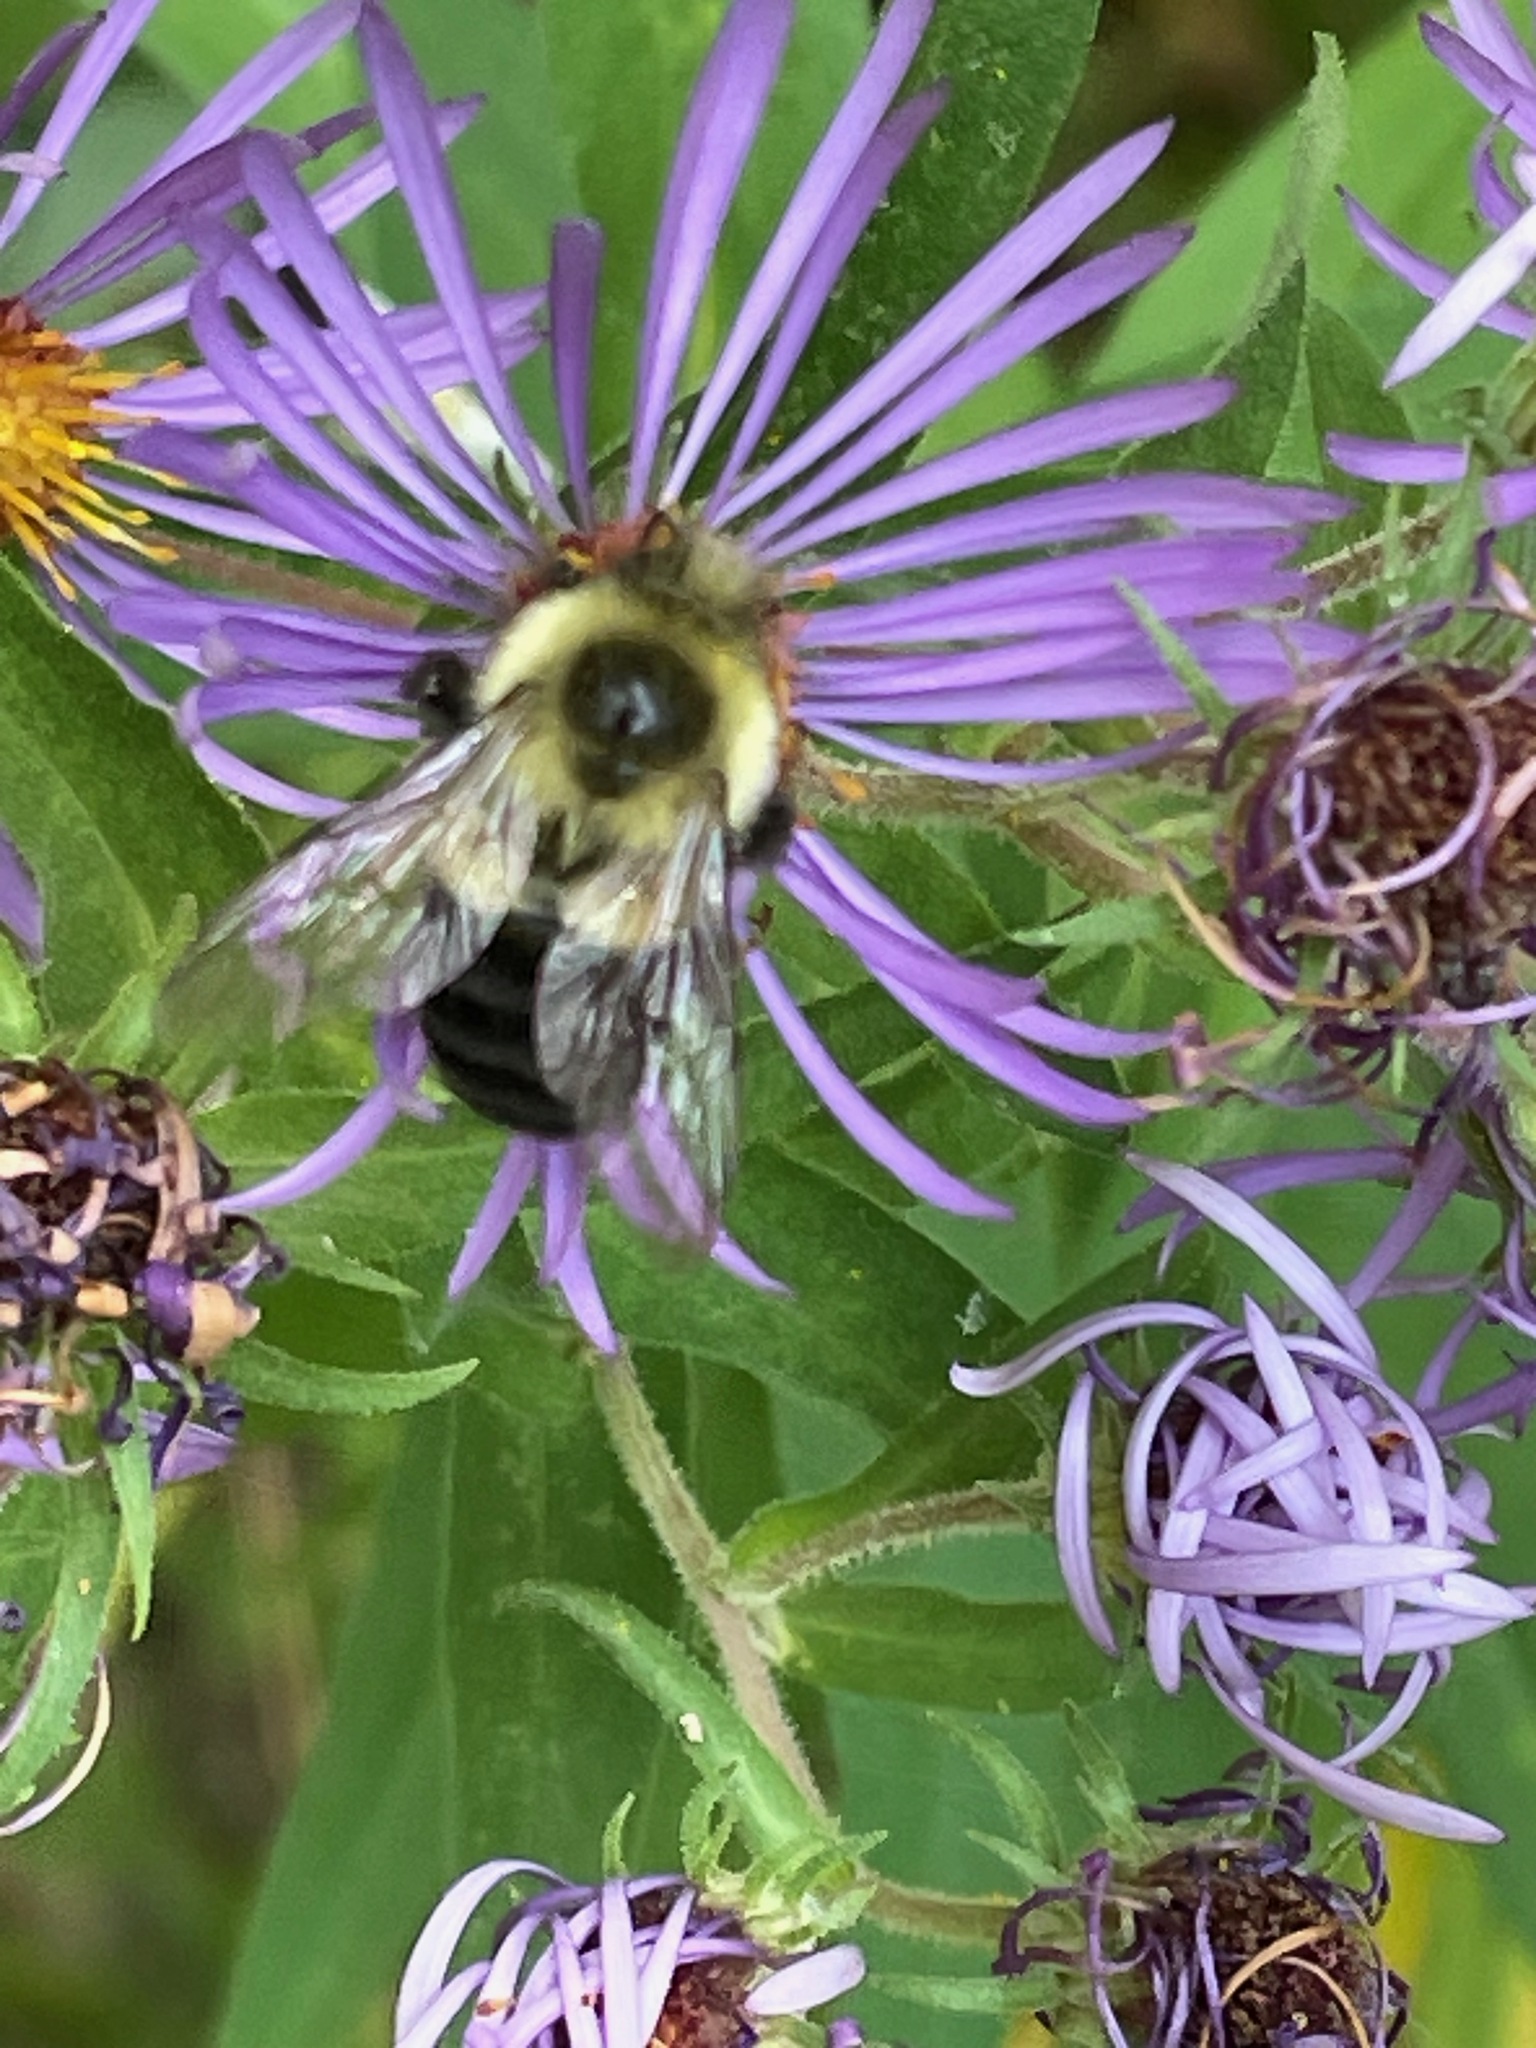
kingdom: Animalia
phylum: Arthropoda
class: Insecta
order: Hymenoptera
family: Apidae
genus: Bombus
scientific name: Bombus impatiens
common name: Common eastern bumble bee
